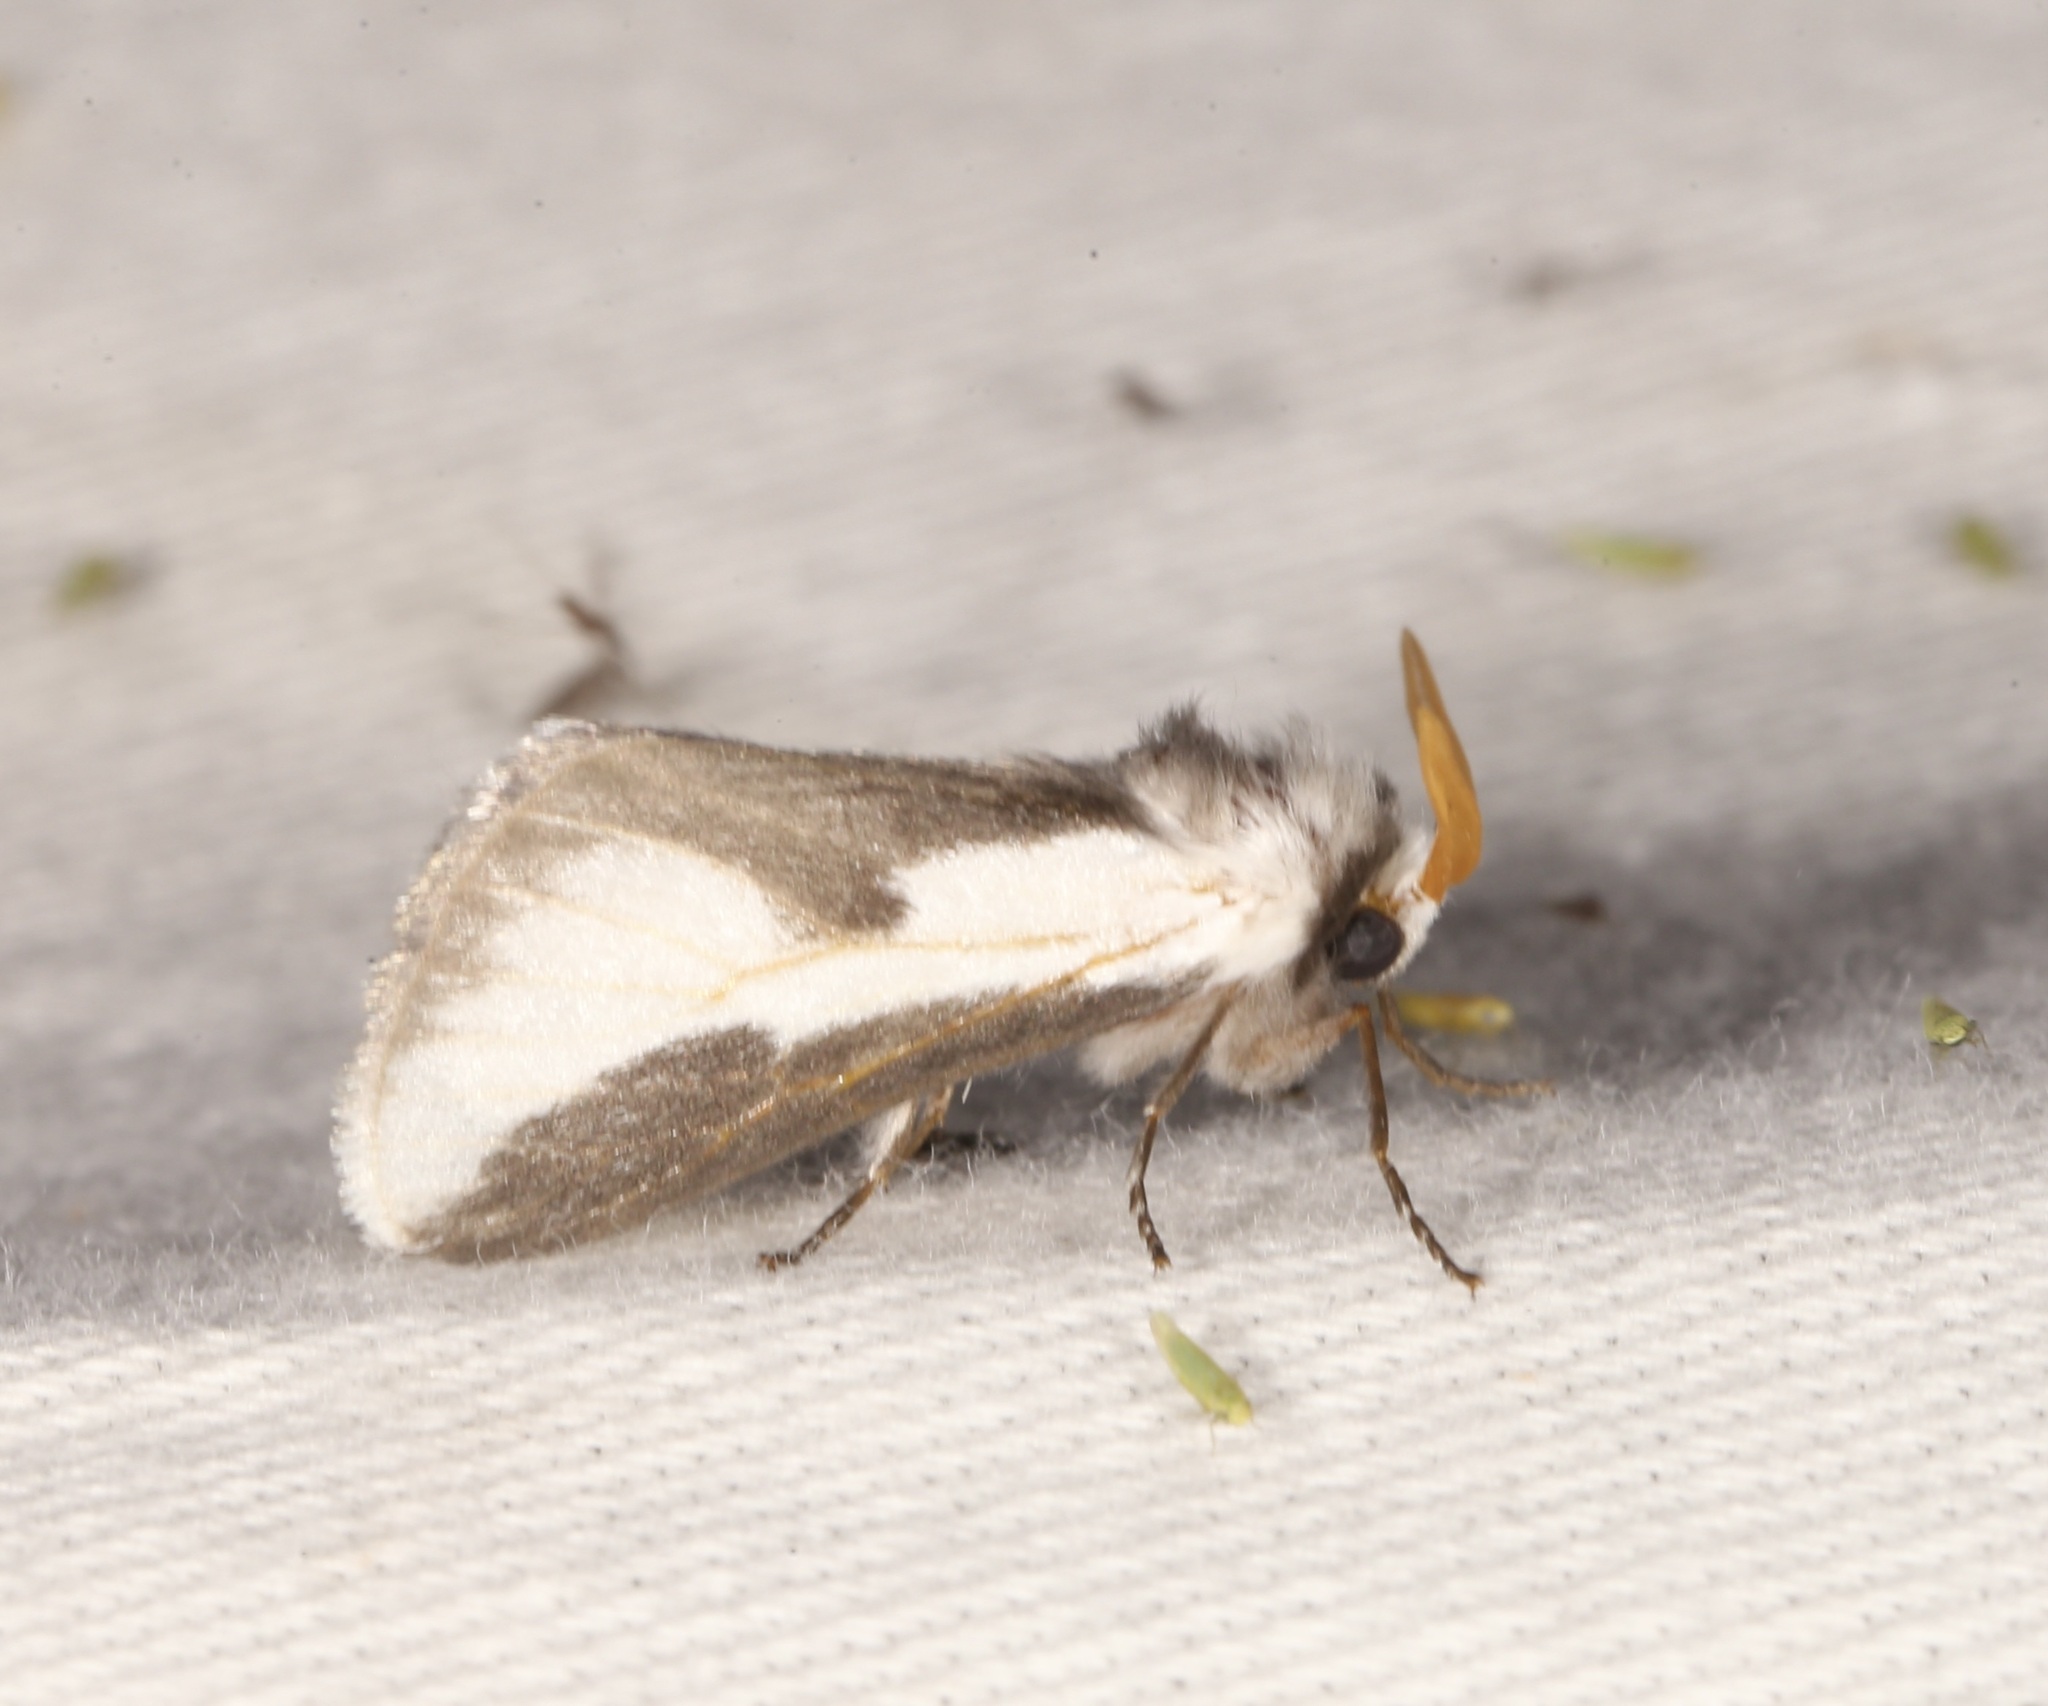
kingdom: Animalia
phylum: Arthropoda
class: Insecta
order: Lepidoptera
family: Megalopygidae
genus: Norape
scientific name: Norape tener
